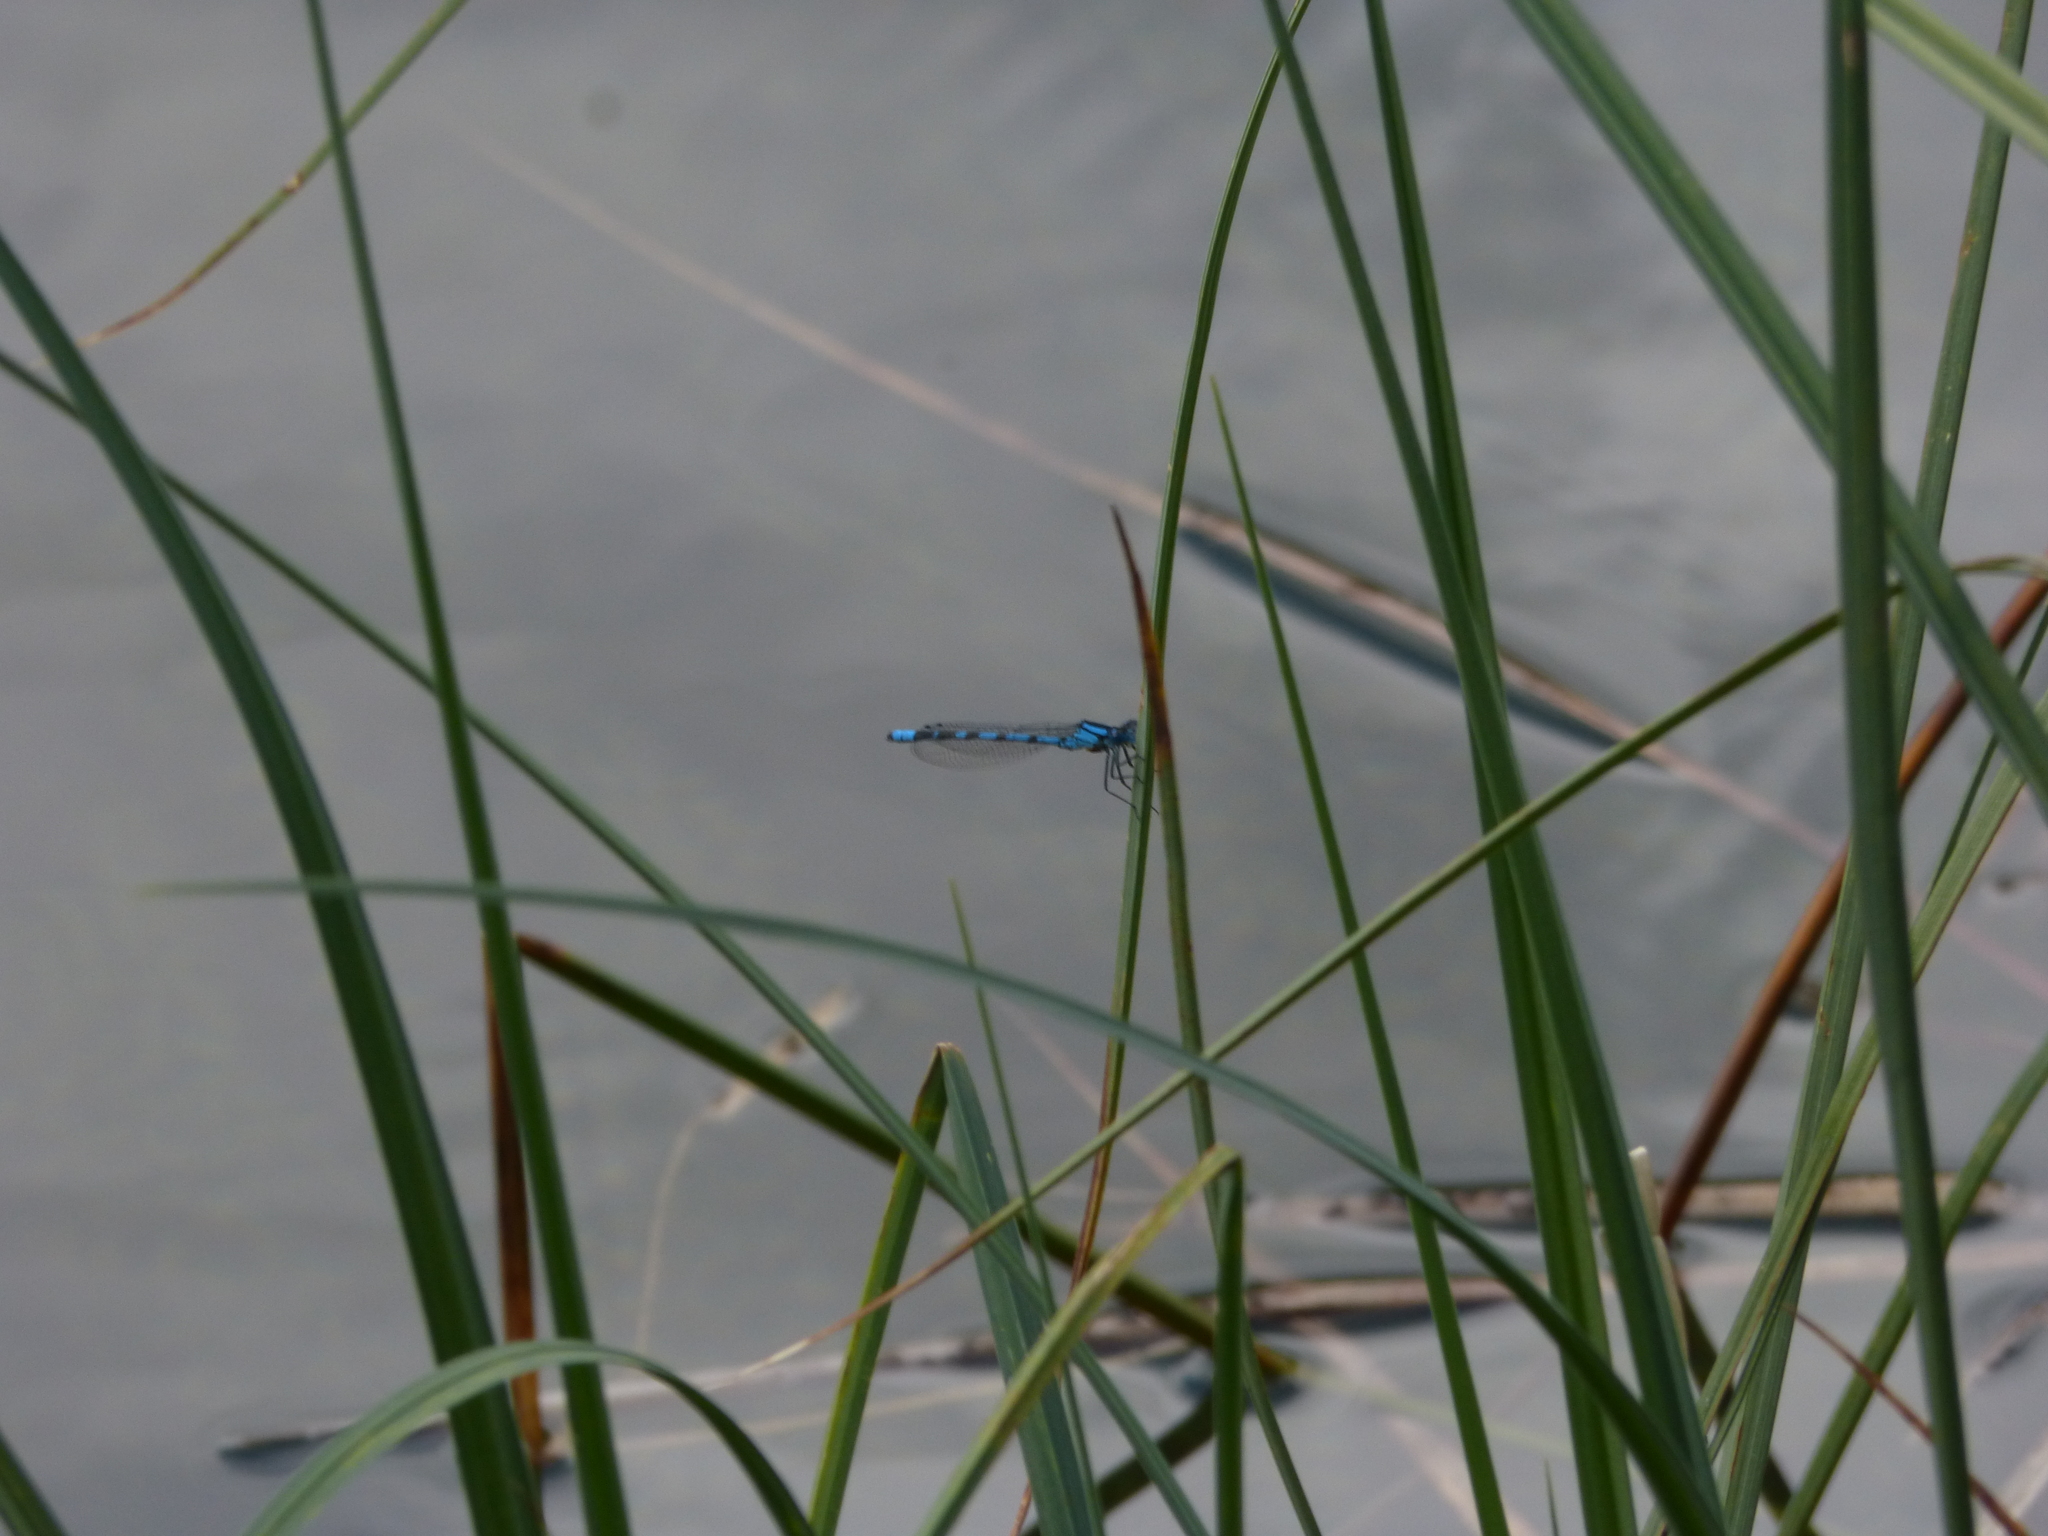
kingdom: Animalia
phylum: Arthropoda
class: Insecta
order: Odonata
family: Coenagrionidae
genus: Enallagma
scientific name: Enallagma cyathigerum
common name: Common blue damselfly
